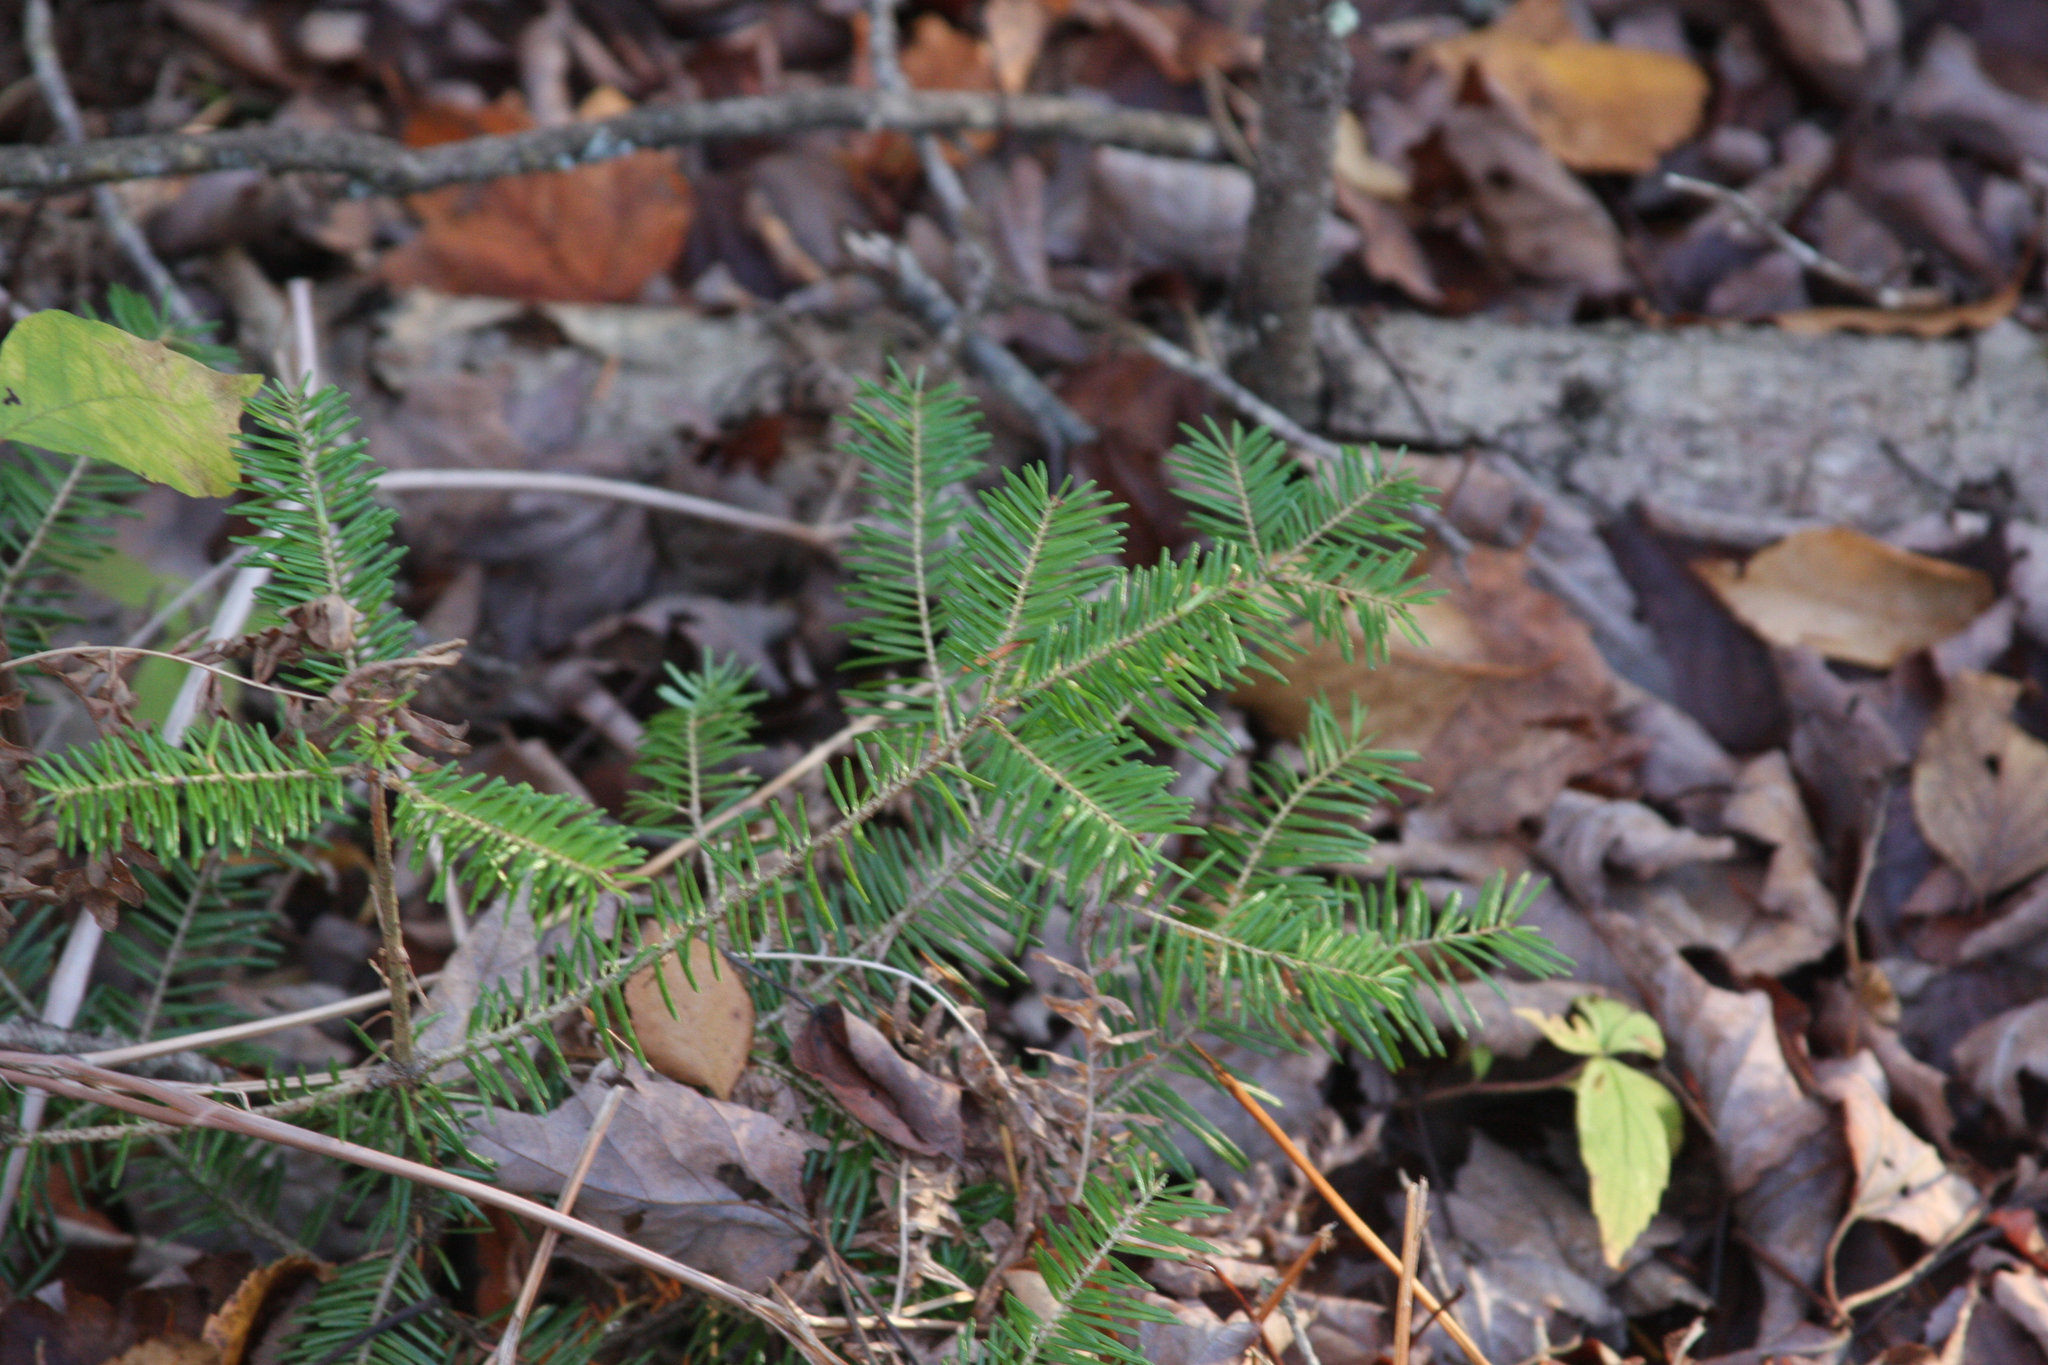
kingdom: Plantae
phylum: Tracheophyta
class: Pinopsida
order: Pinales
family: Pinaceae
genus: Abies
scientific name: Abies balsamea
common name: Balsam fir
